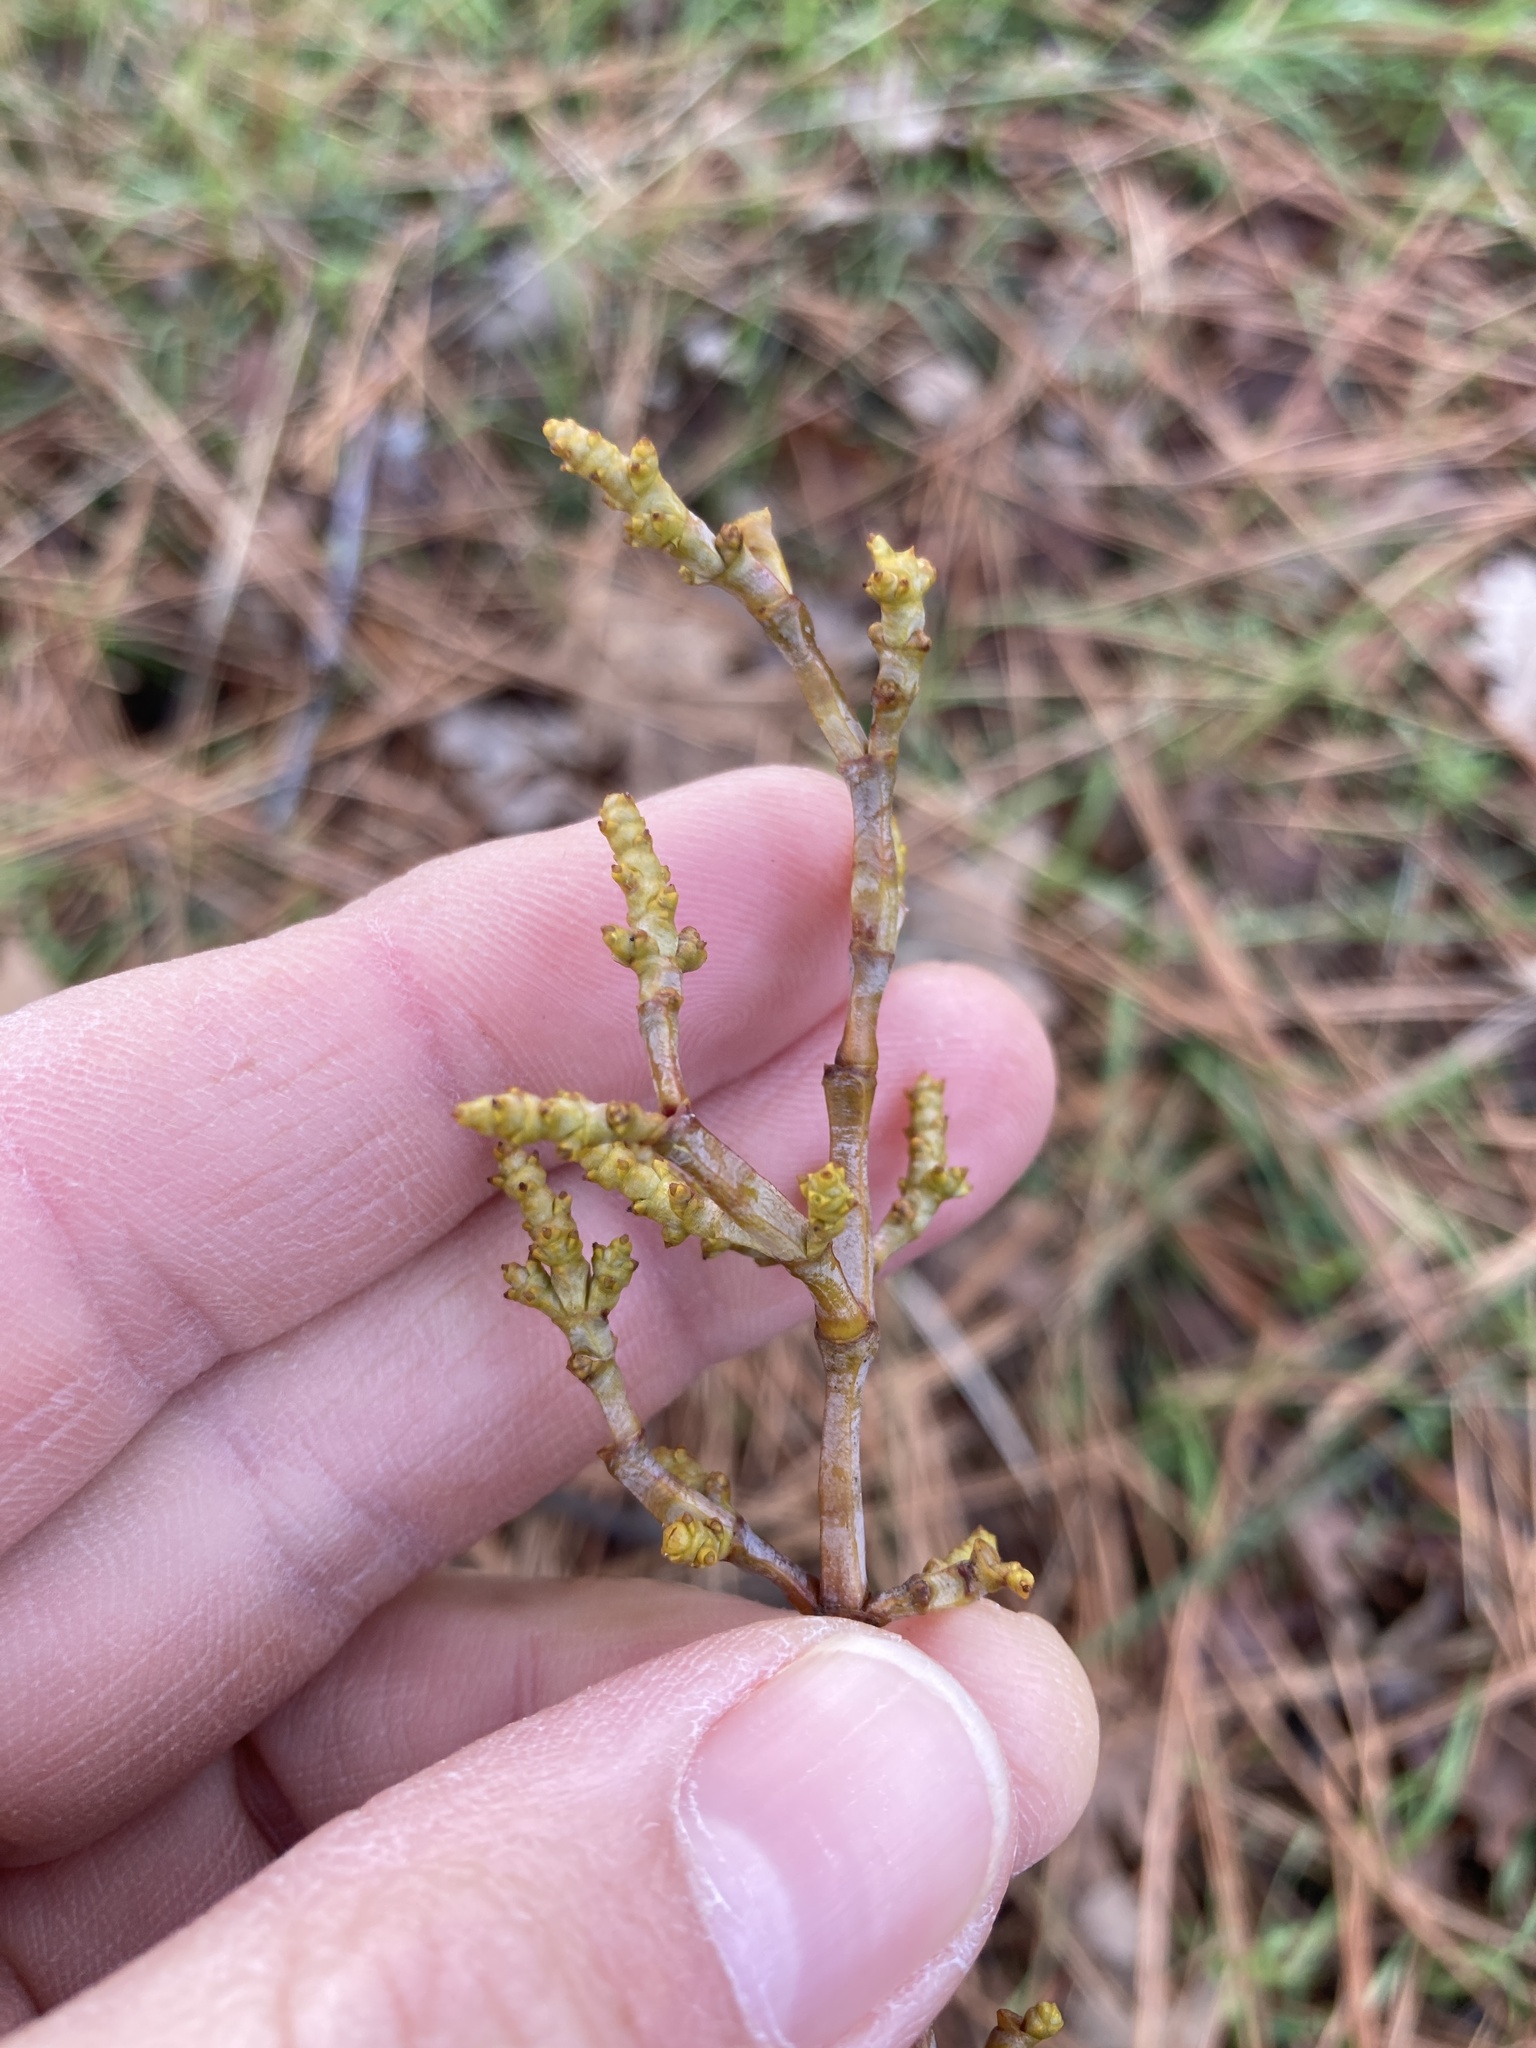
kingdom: Plantae
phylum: Tracheophyta
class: Magnoliopsida
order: Santalales
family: Viscaceae
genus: Arceuthobium
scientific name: Arceuthobium campylopodum
